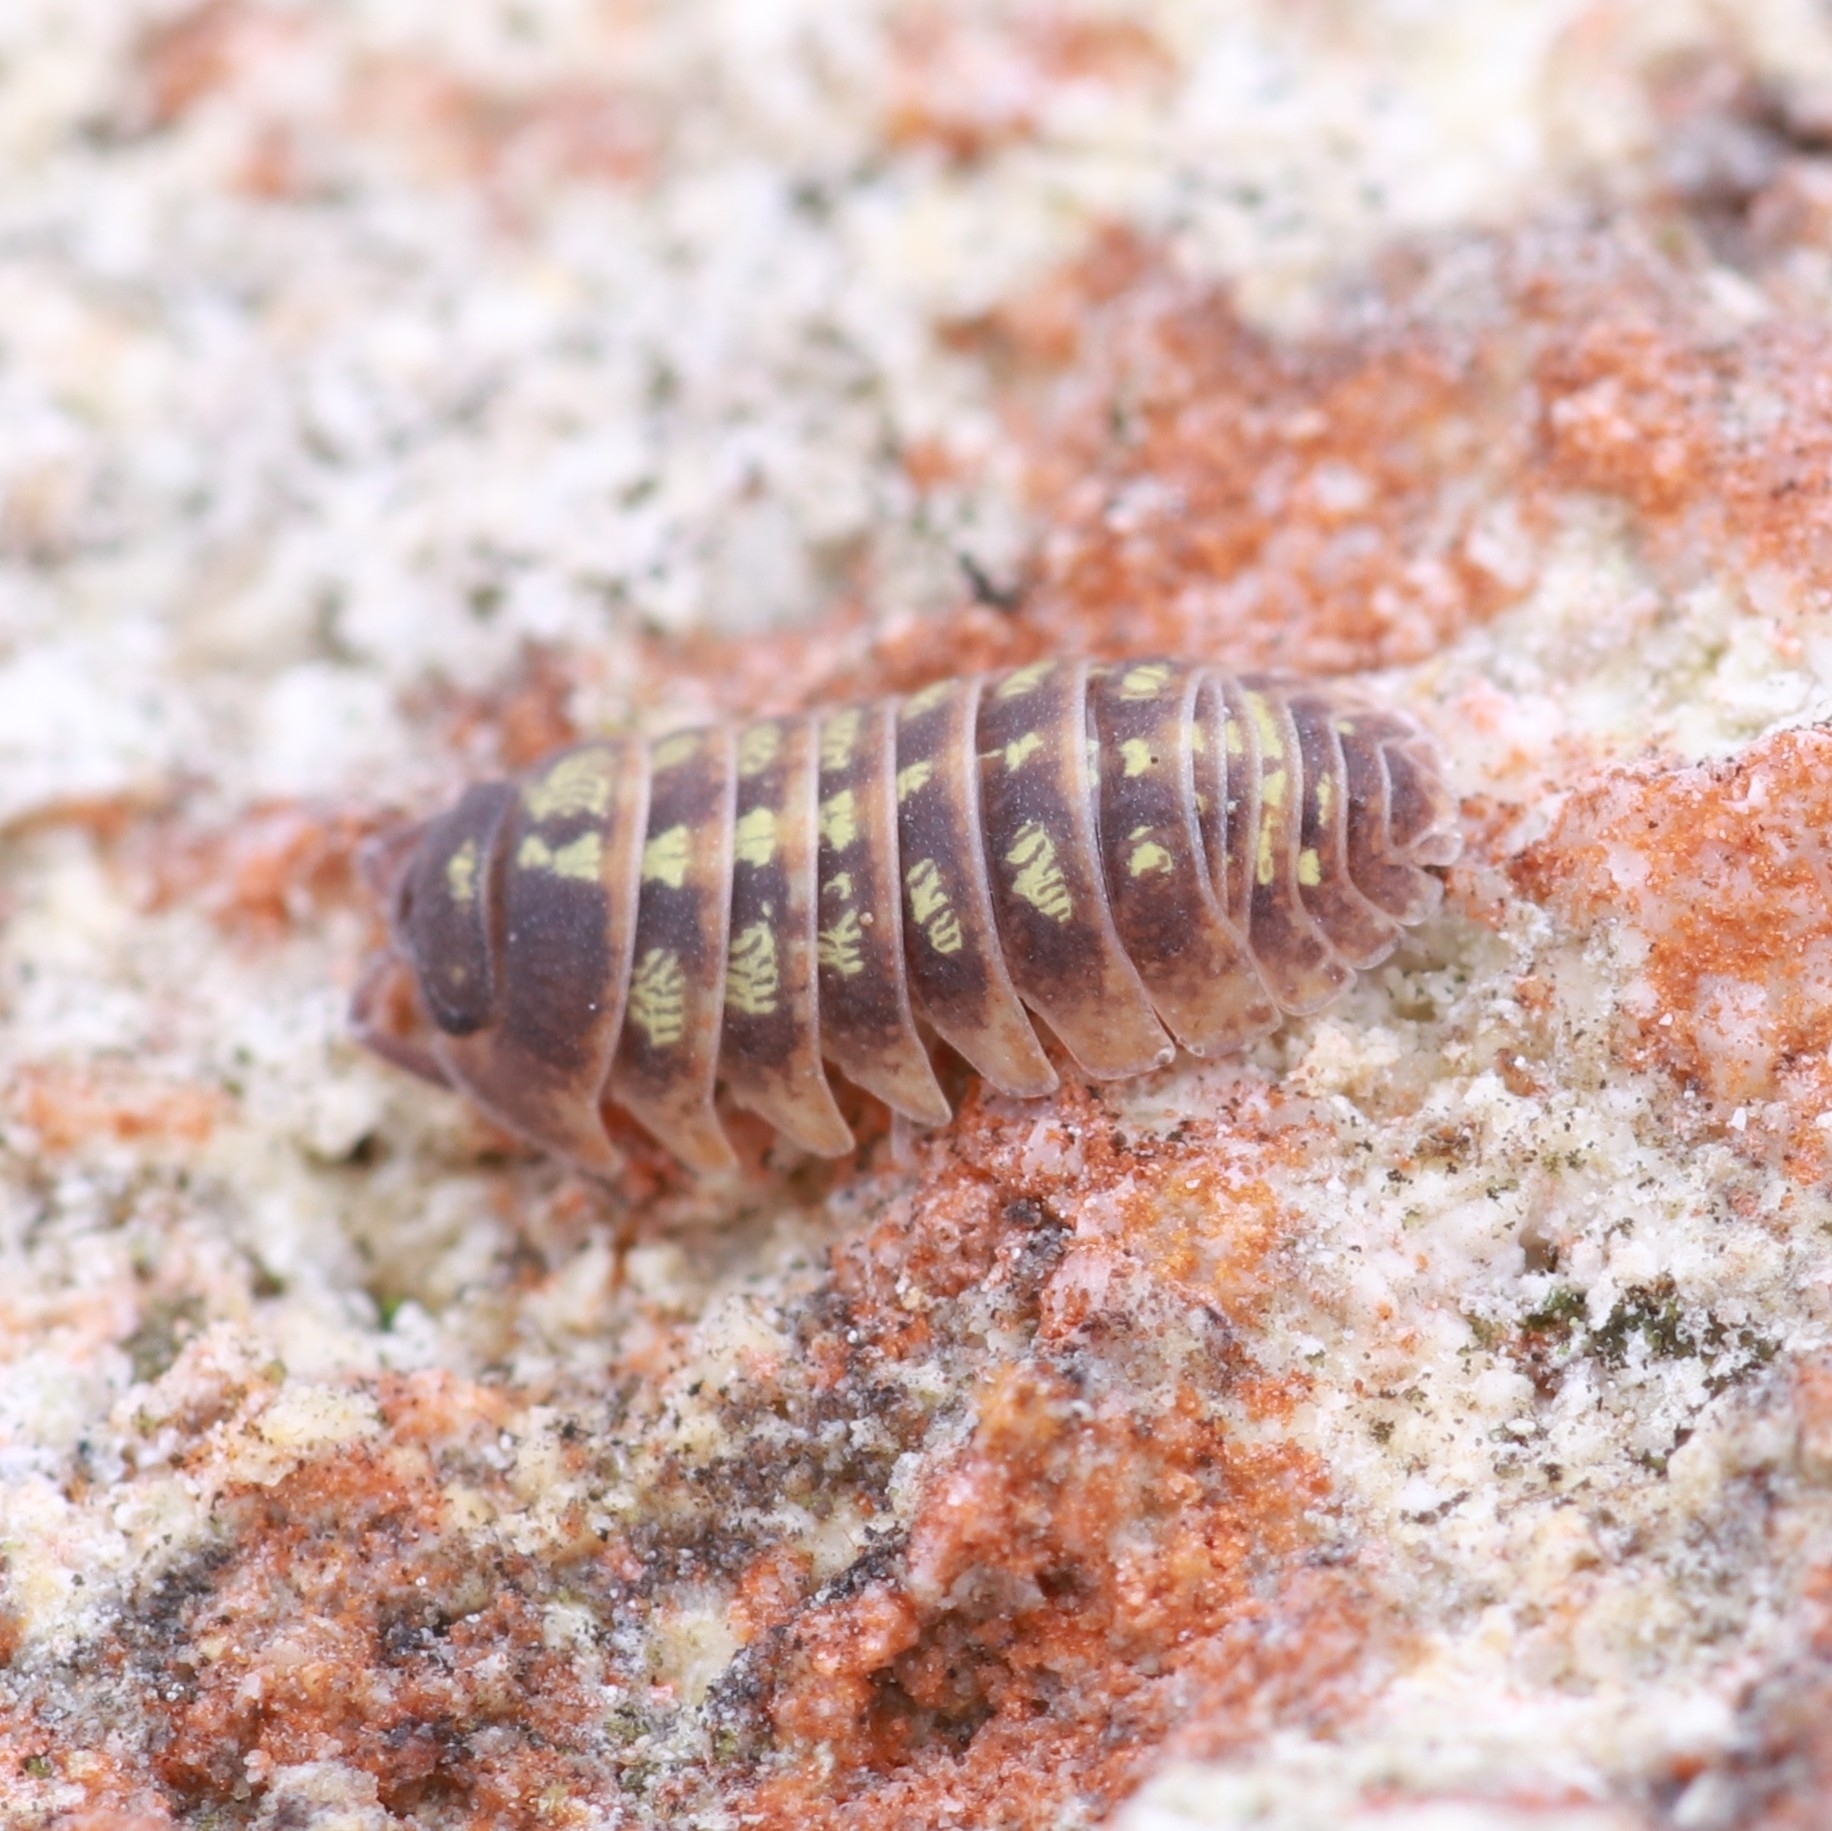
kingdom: Animalia
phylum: Arthropoda
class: Malacostraca
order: Isopoda
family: Armadillidiidae
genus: Armadillidium
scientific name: Armadillidium depressum
